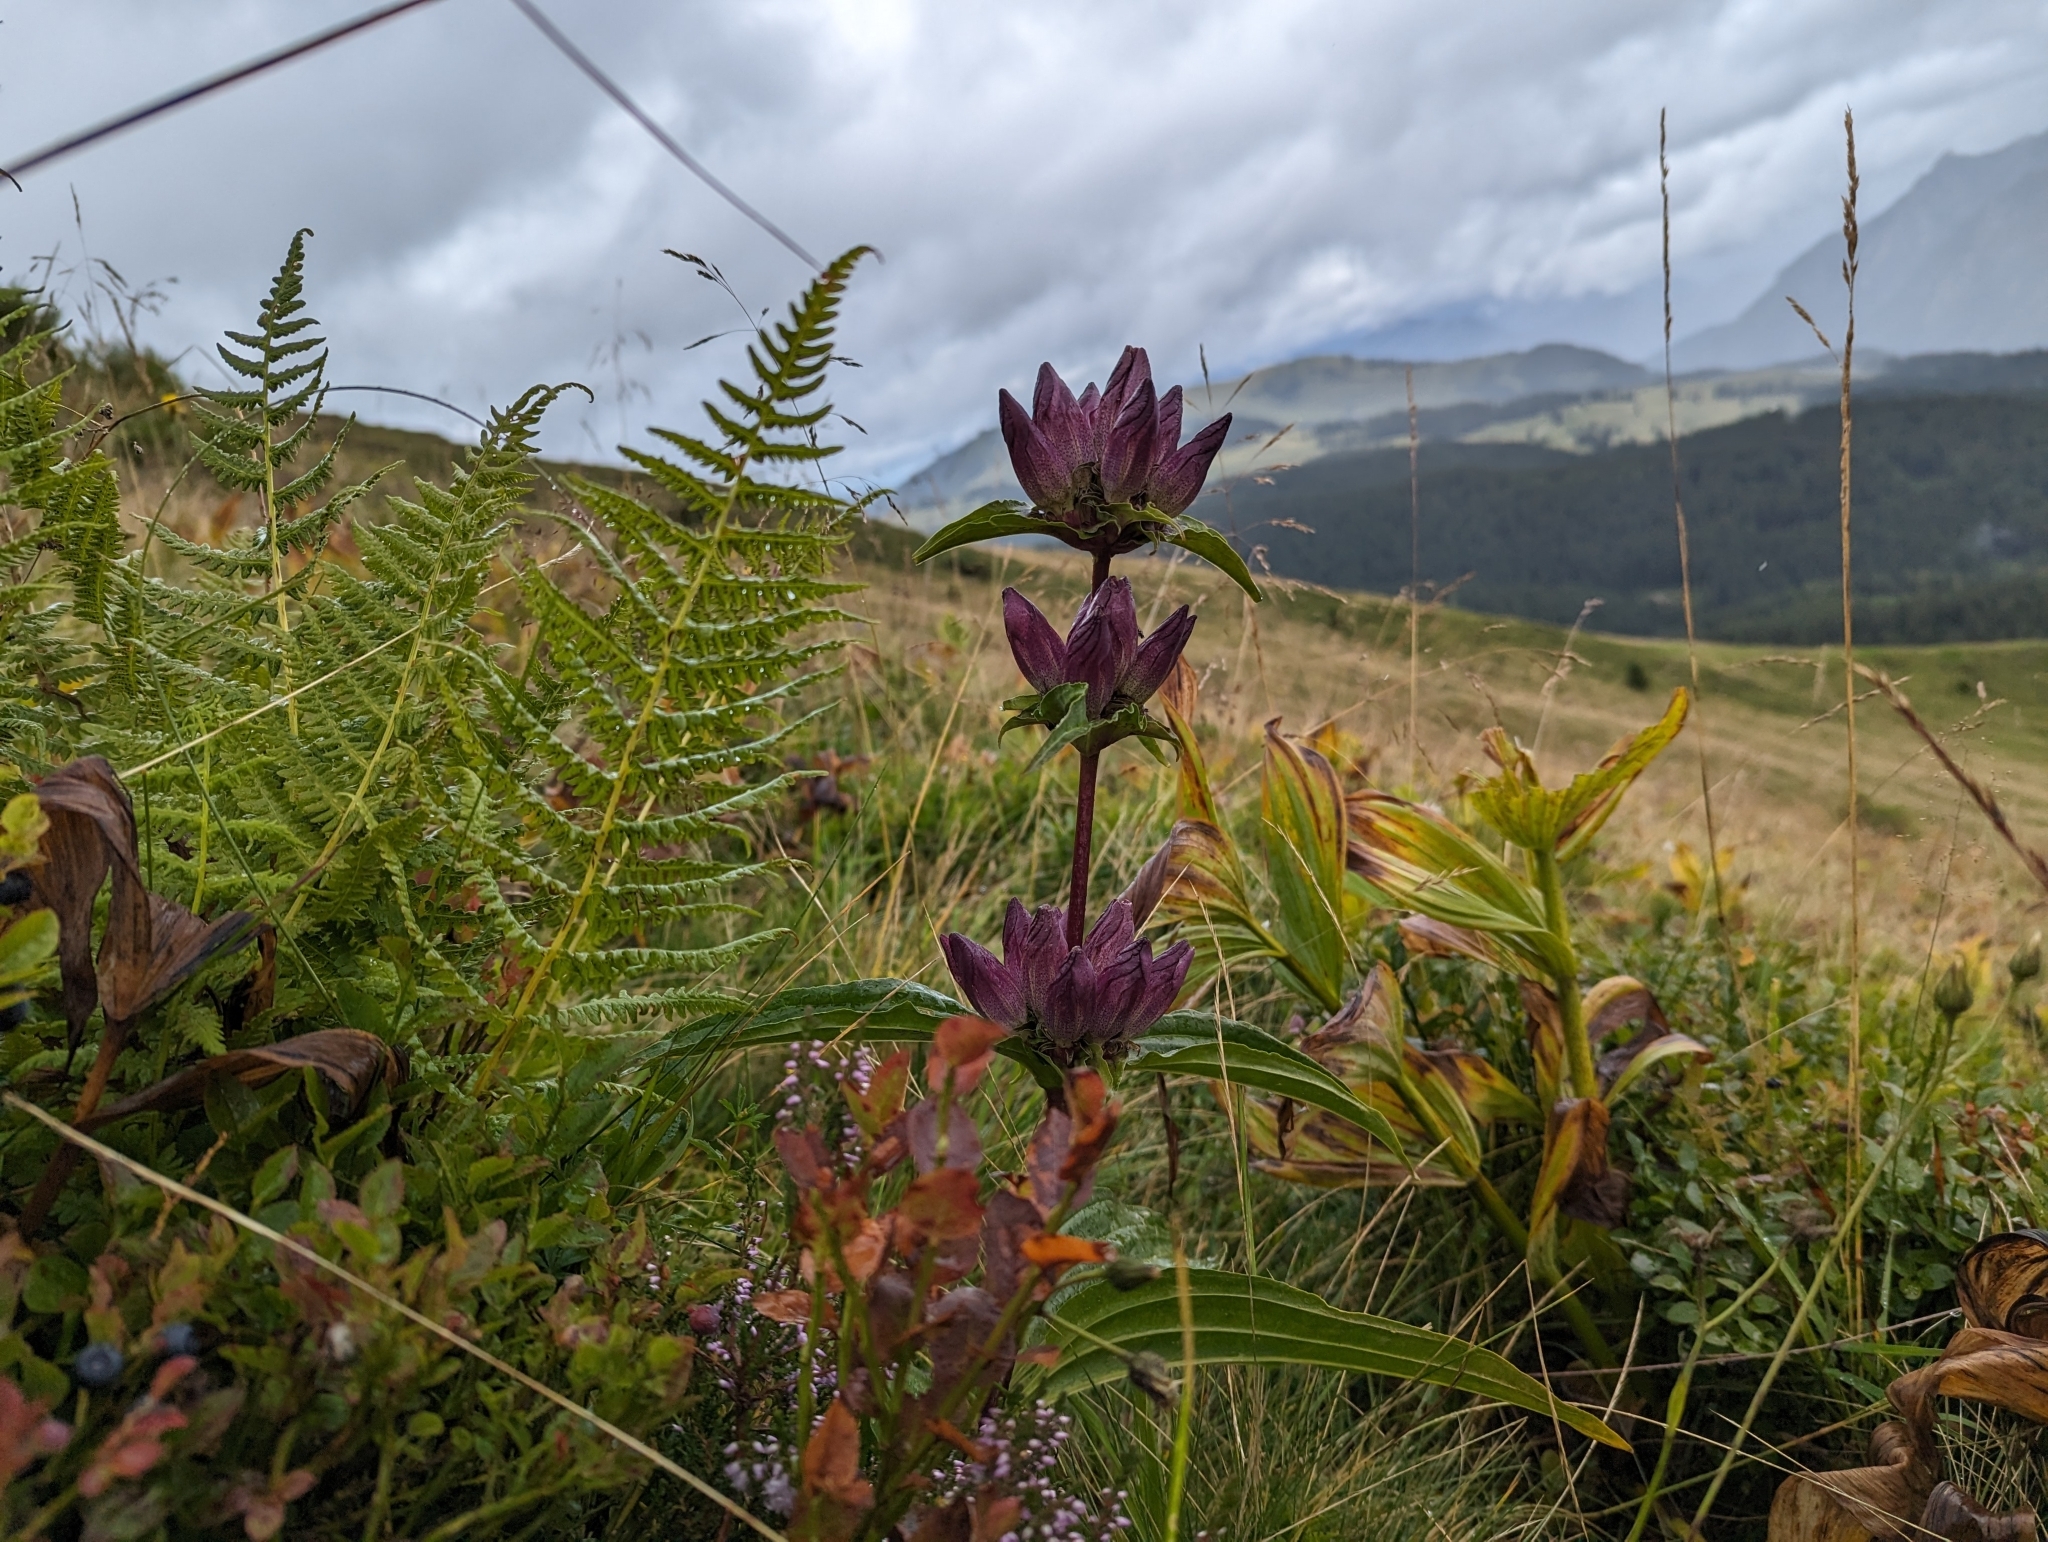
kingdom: Plantae
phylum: Tracheophyta
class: Magnoliopsida
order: Gentianales
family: Gentianaceae
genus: Gentiana
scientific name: Gentiana pannonica
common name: Hungarian gentian
